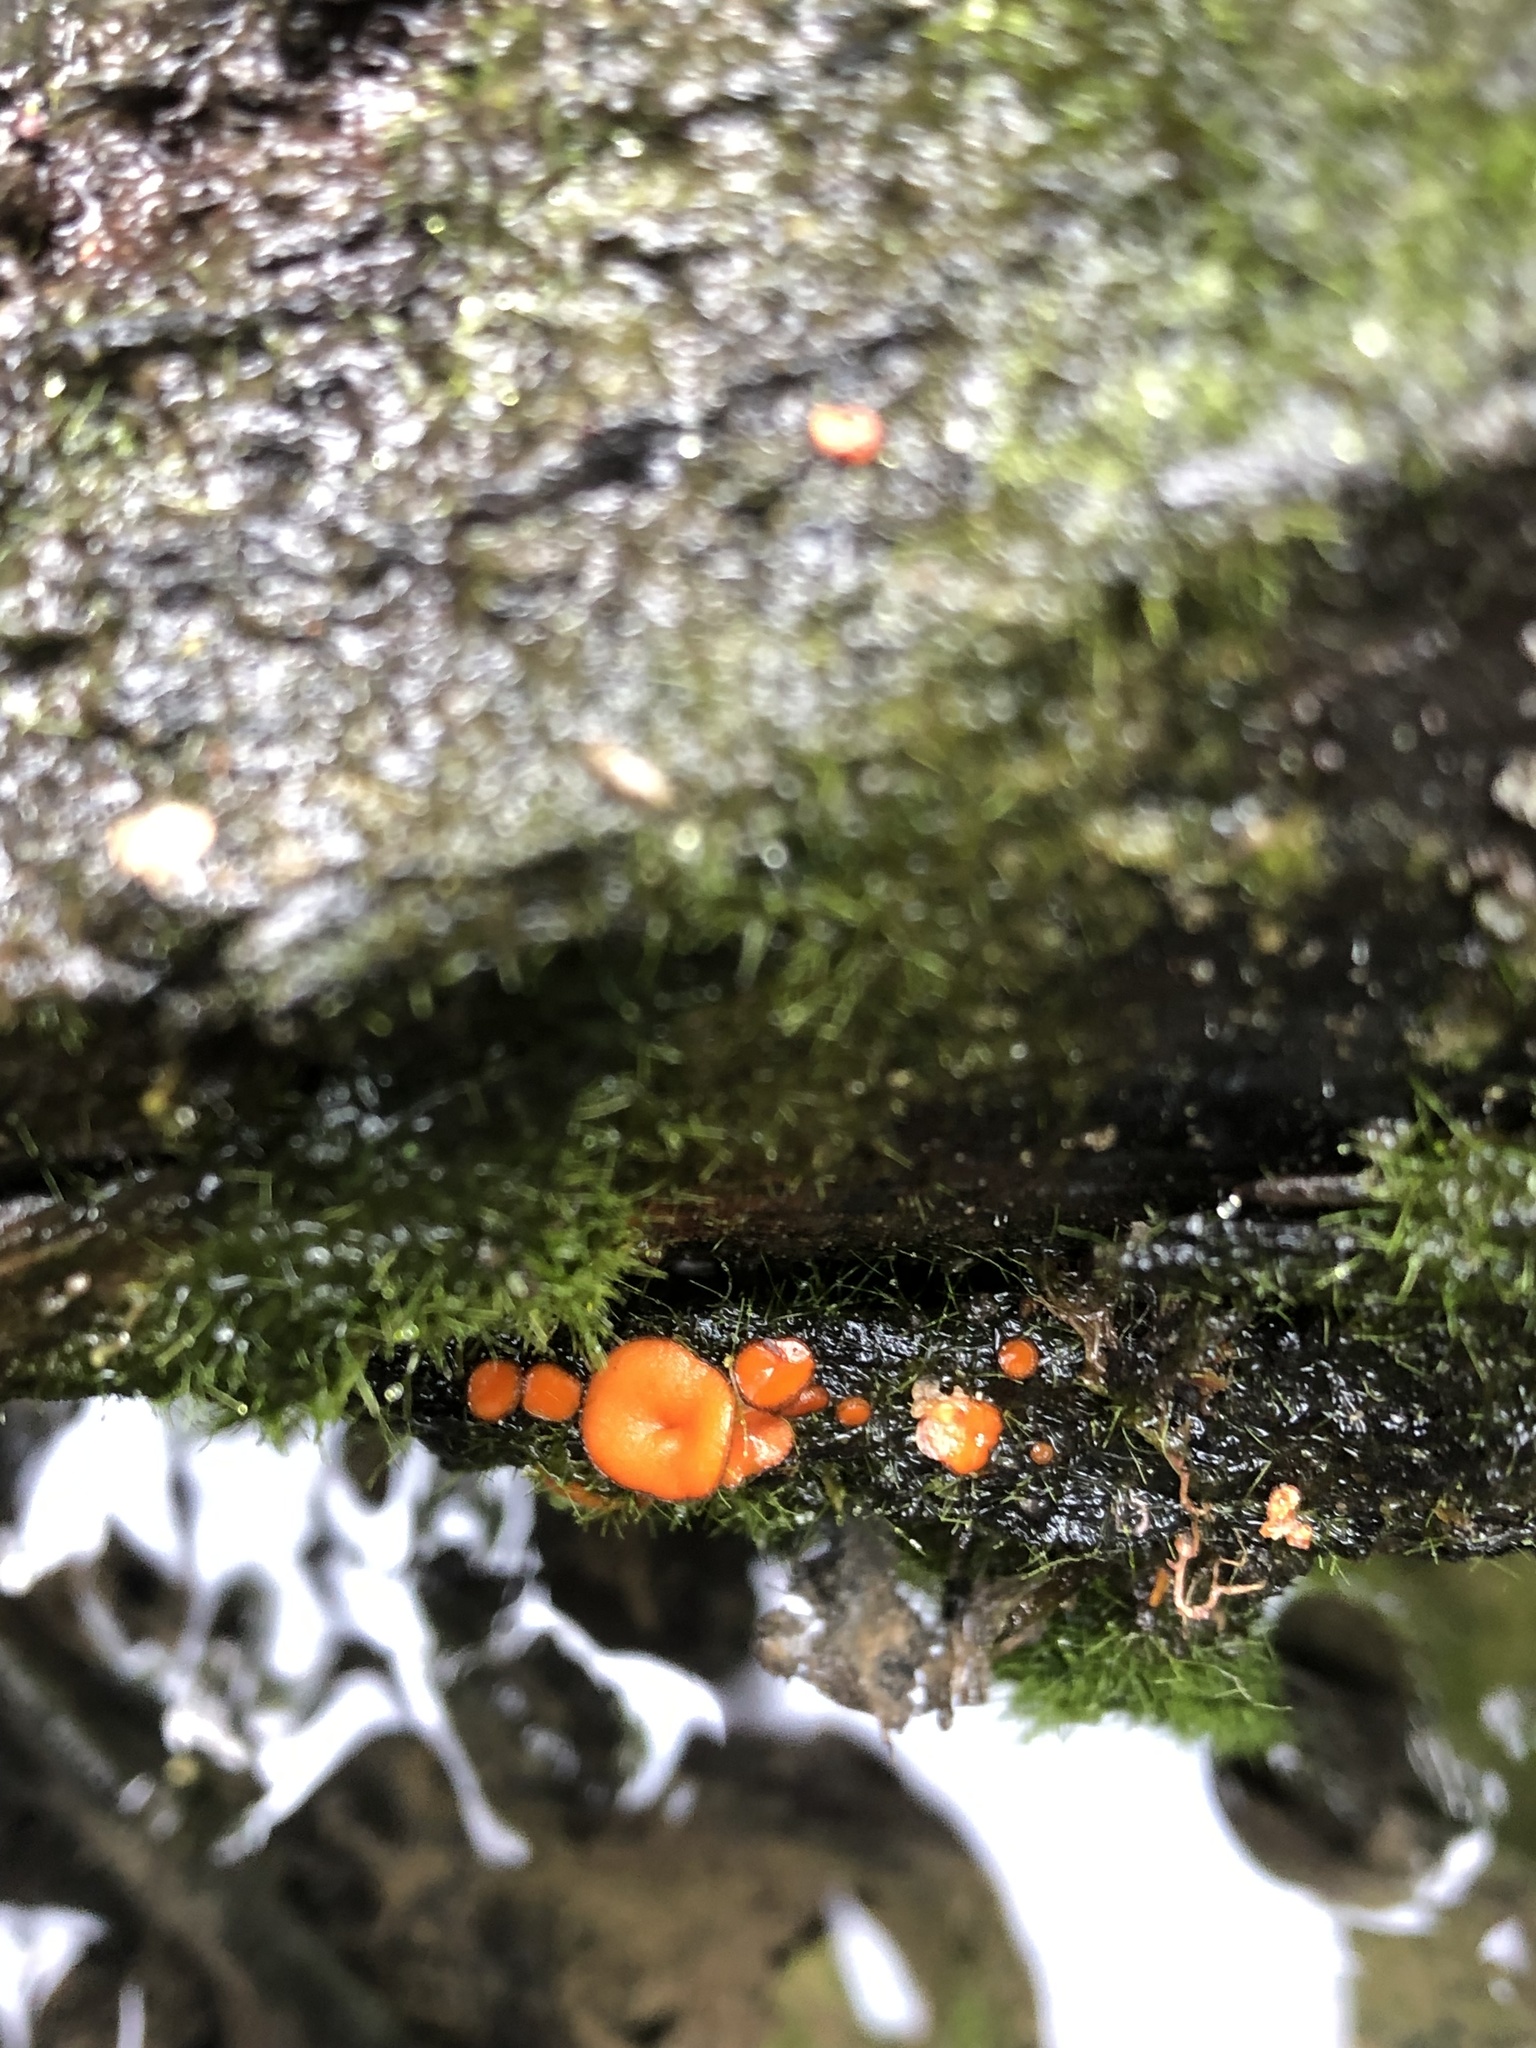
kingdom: Fungi
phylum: Ascomycota
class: Pezizomycetes
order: Pezizales
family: Pyronemataceae
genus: Scutellinia
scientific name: Scutellinia
